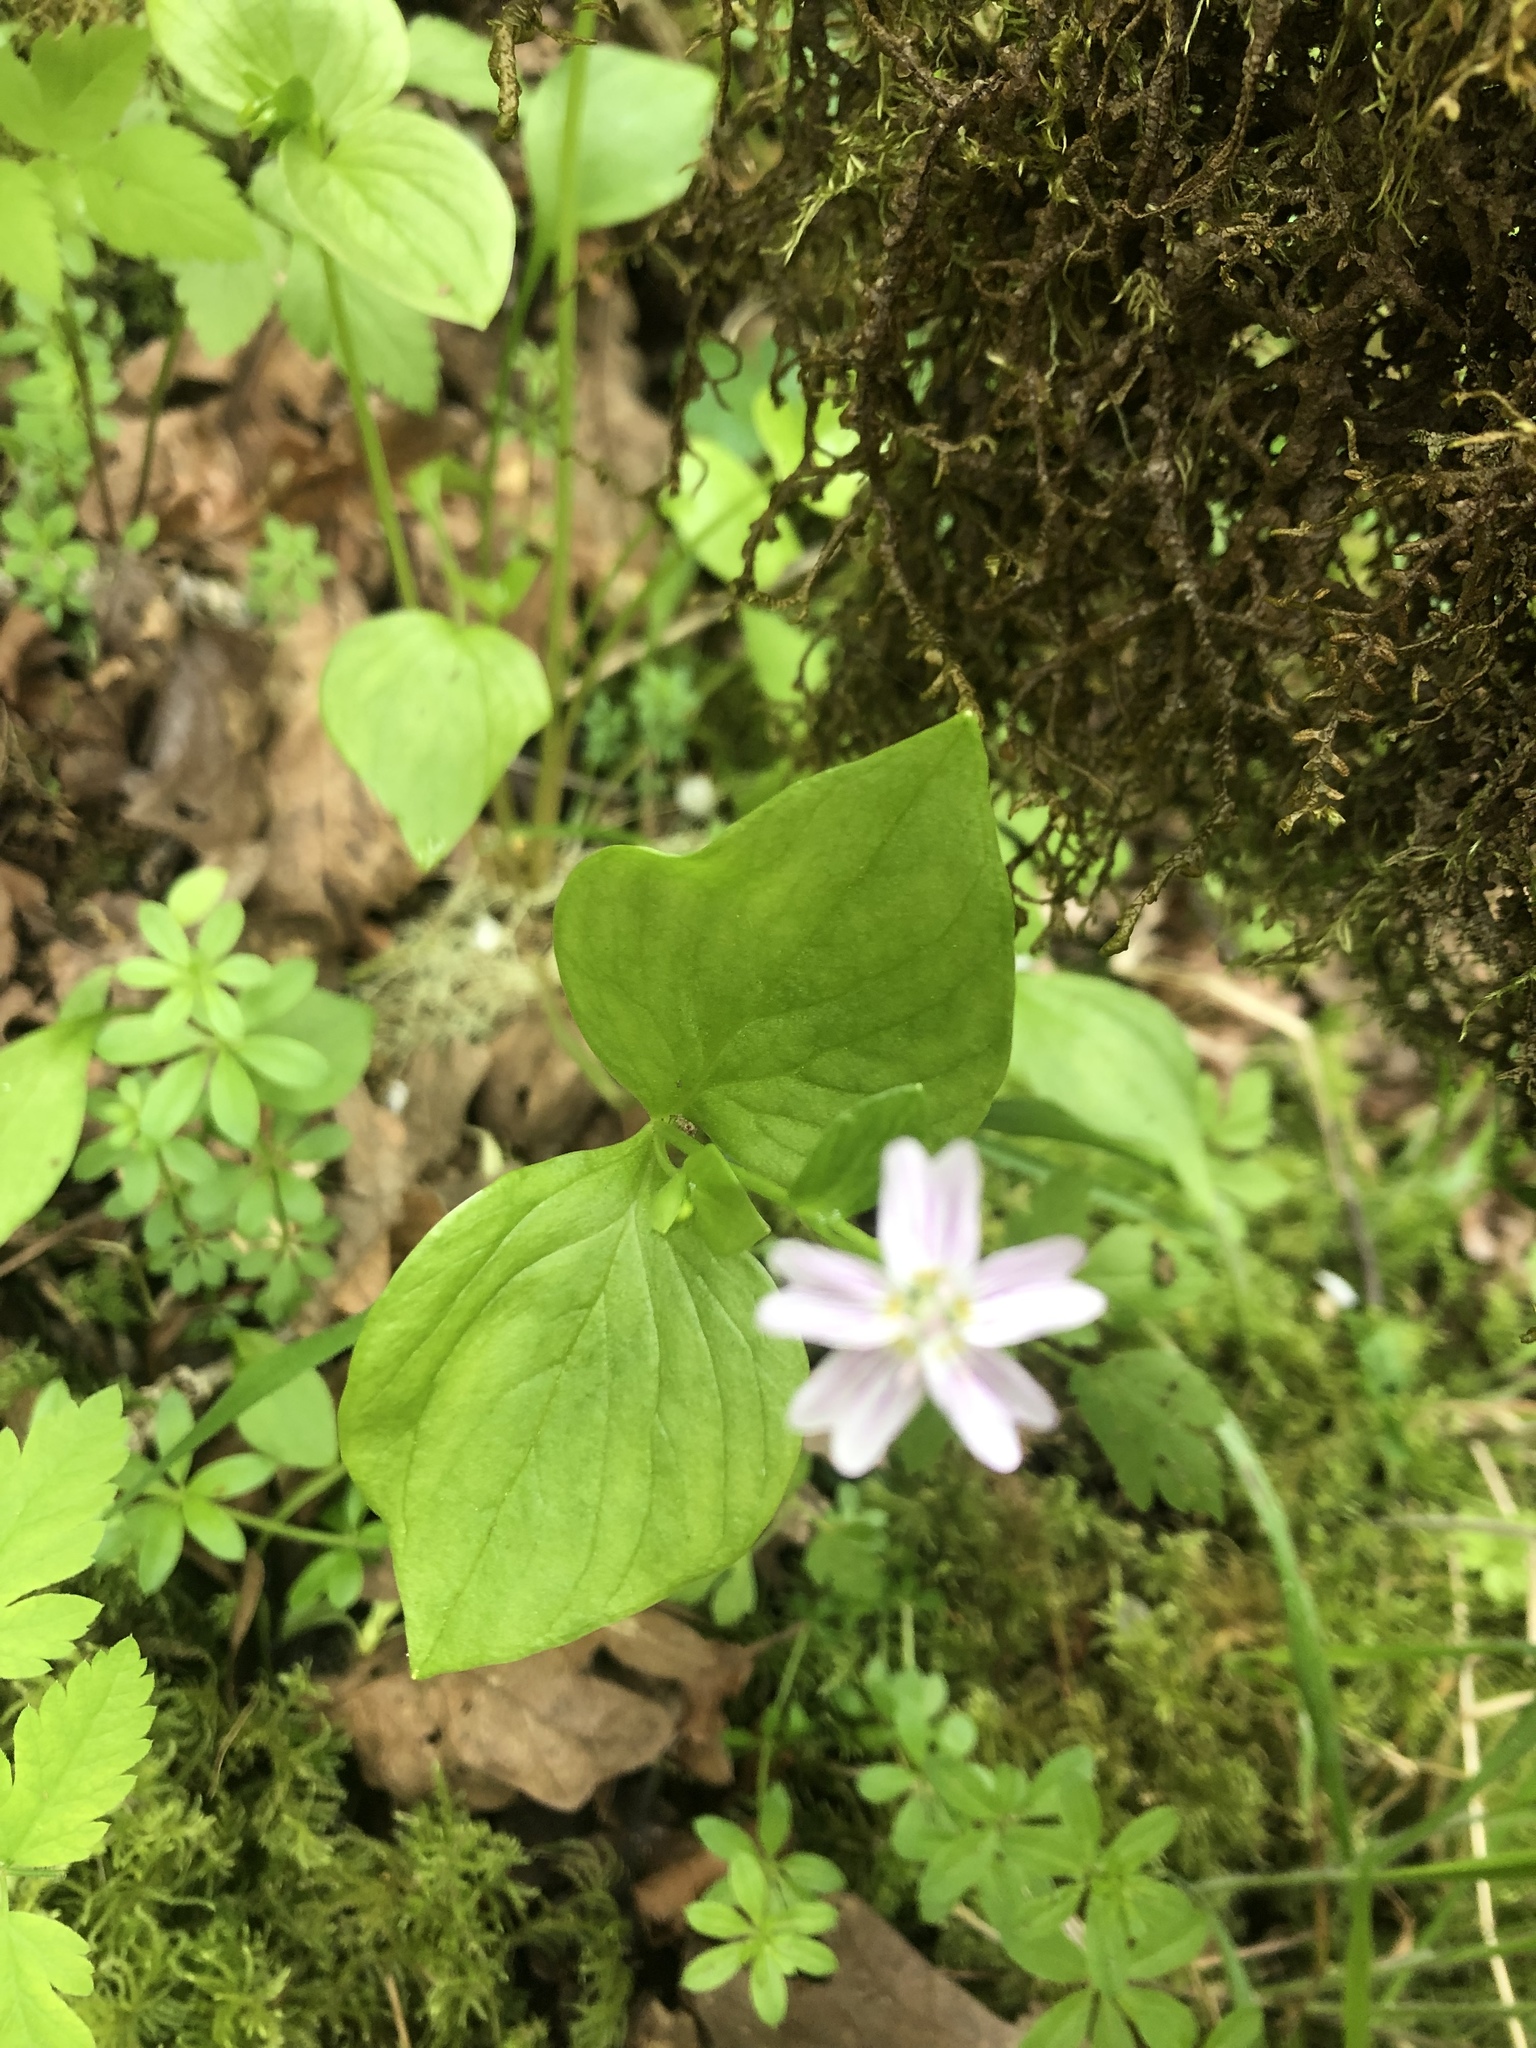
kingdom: Plantae
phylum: Tracheophyta
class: Magnoliopsida
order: Caryophyllales
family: Montiaceae
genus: Claytonia
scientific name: Claytonia sibirica
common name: Pink purslane
